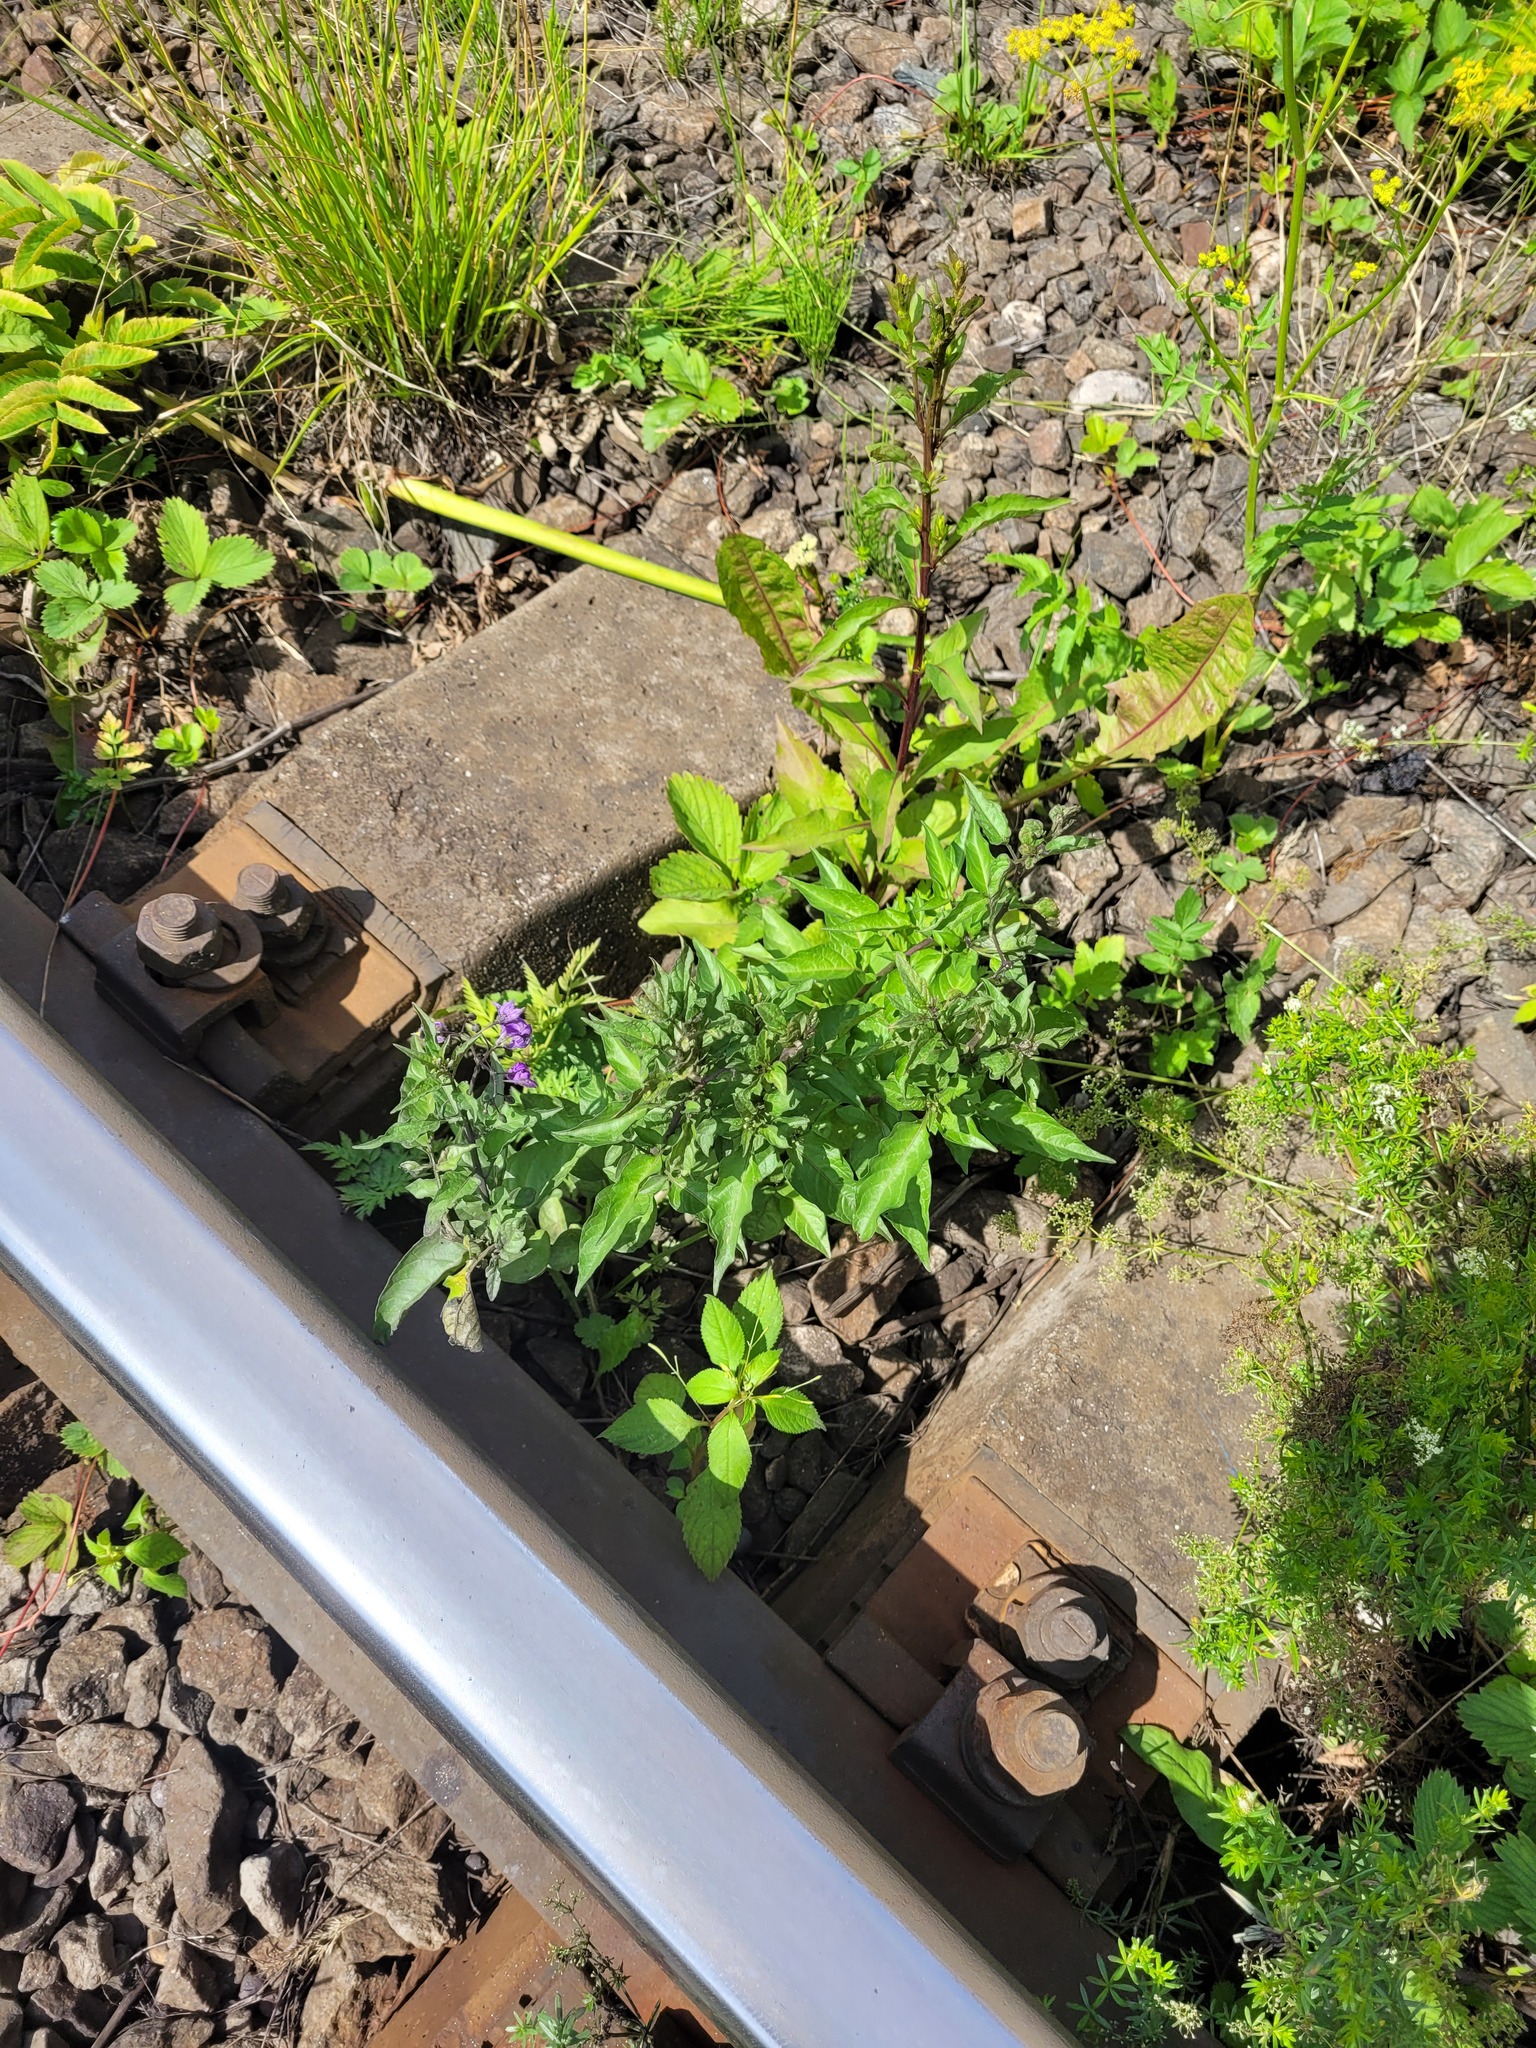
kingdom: Plantae
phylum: Tracheophyta
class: Magnoliopsida
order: Solanales
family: Solanaceae
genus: Solanum
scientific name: Solanum dulcamara
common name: Climbing nightshade
